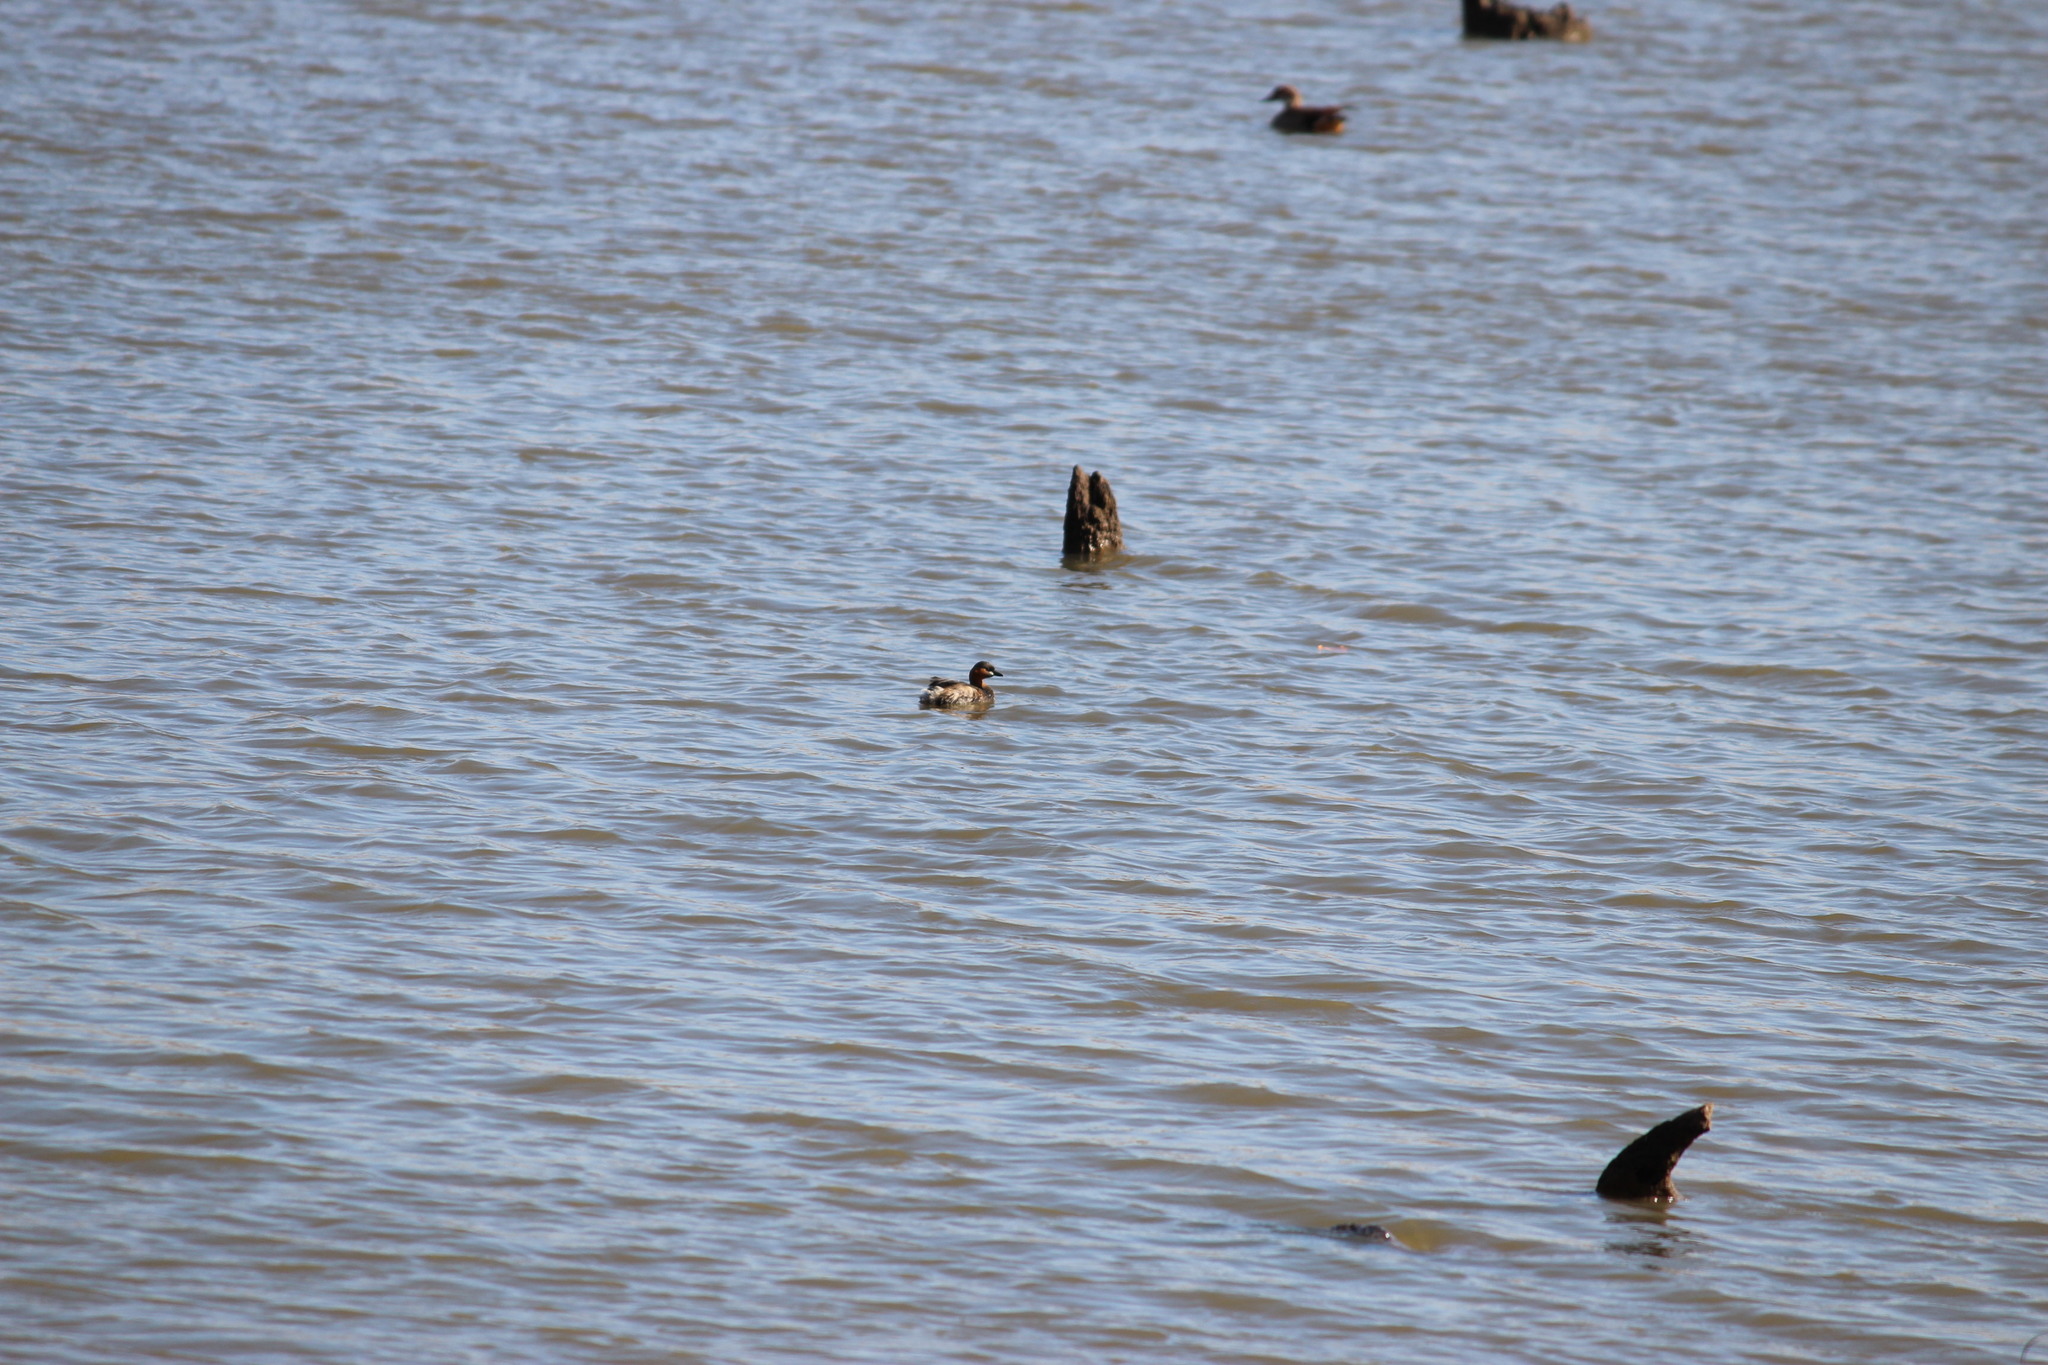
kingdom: Animalia
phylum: Chordata
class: Aves
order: Podicipediformes
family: Podicipedidae
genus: Tachybaptus
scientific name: Tachybaptus ruficollis
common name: Little grebe
